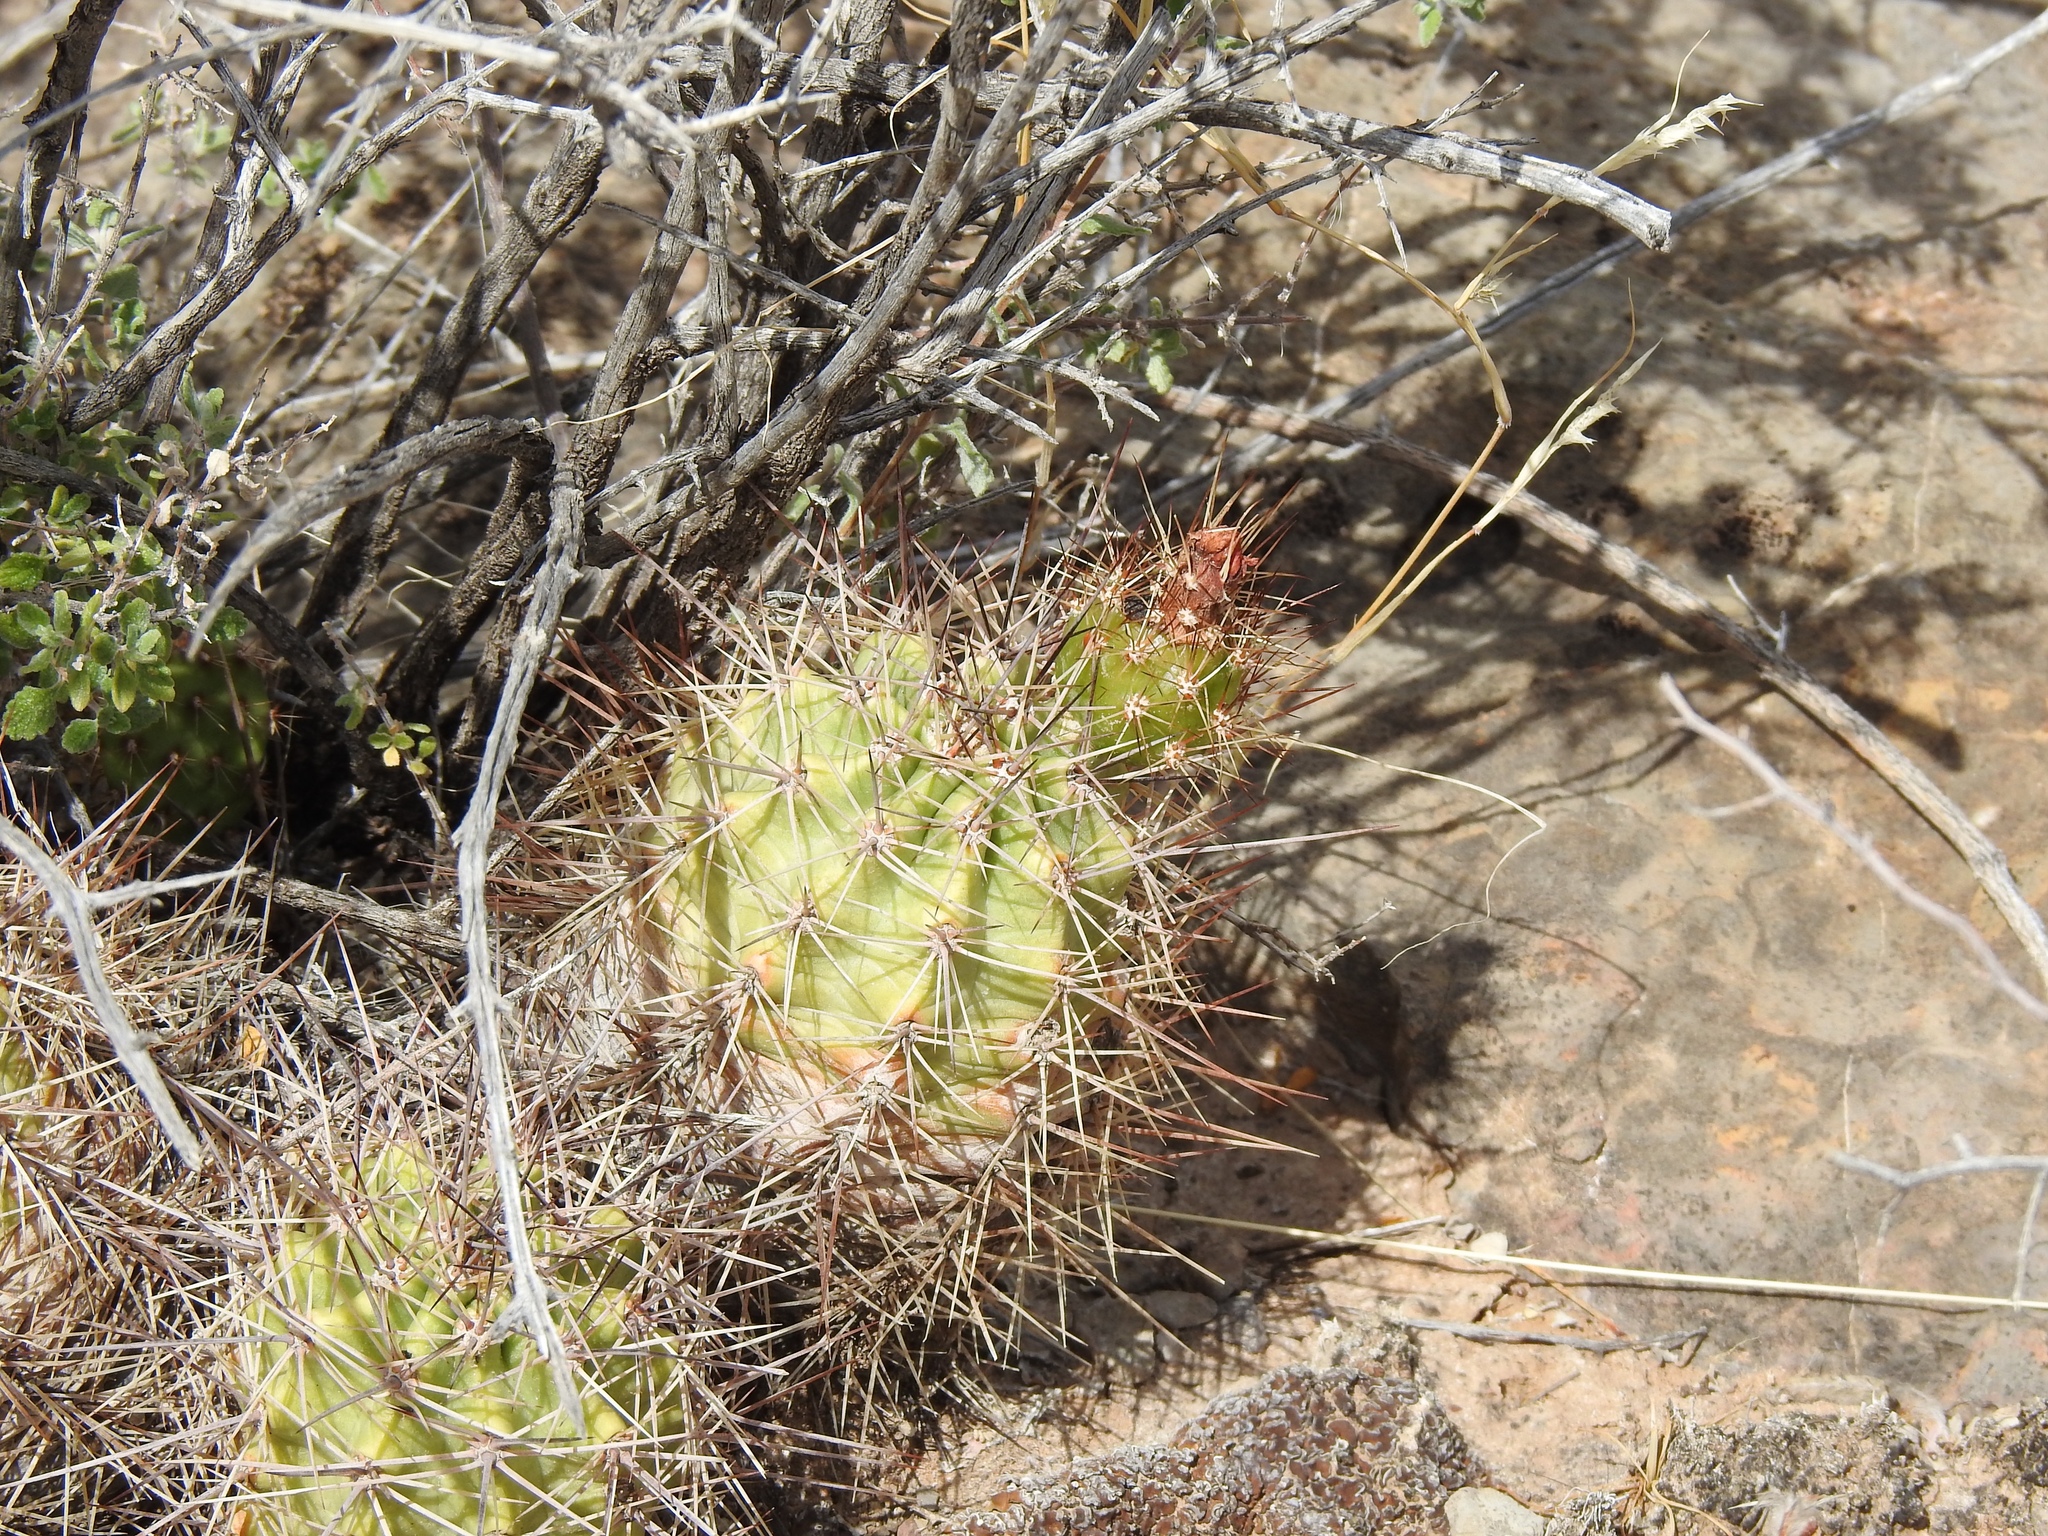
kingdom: Plantae
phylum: Tracheophyta
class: Magnoliopsida
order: Caryophyllales
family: Cactaceae
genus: Echinocereus
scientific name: Echinocereus coccineus
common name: Scarlet hedgehog cactus
